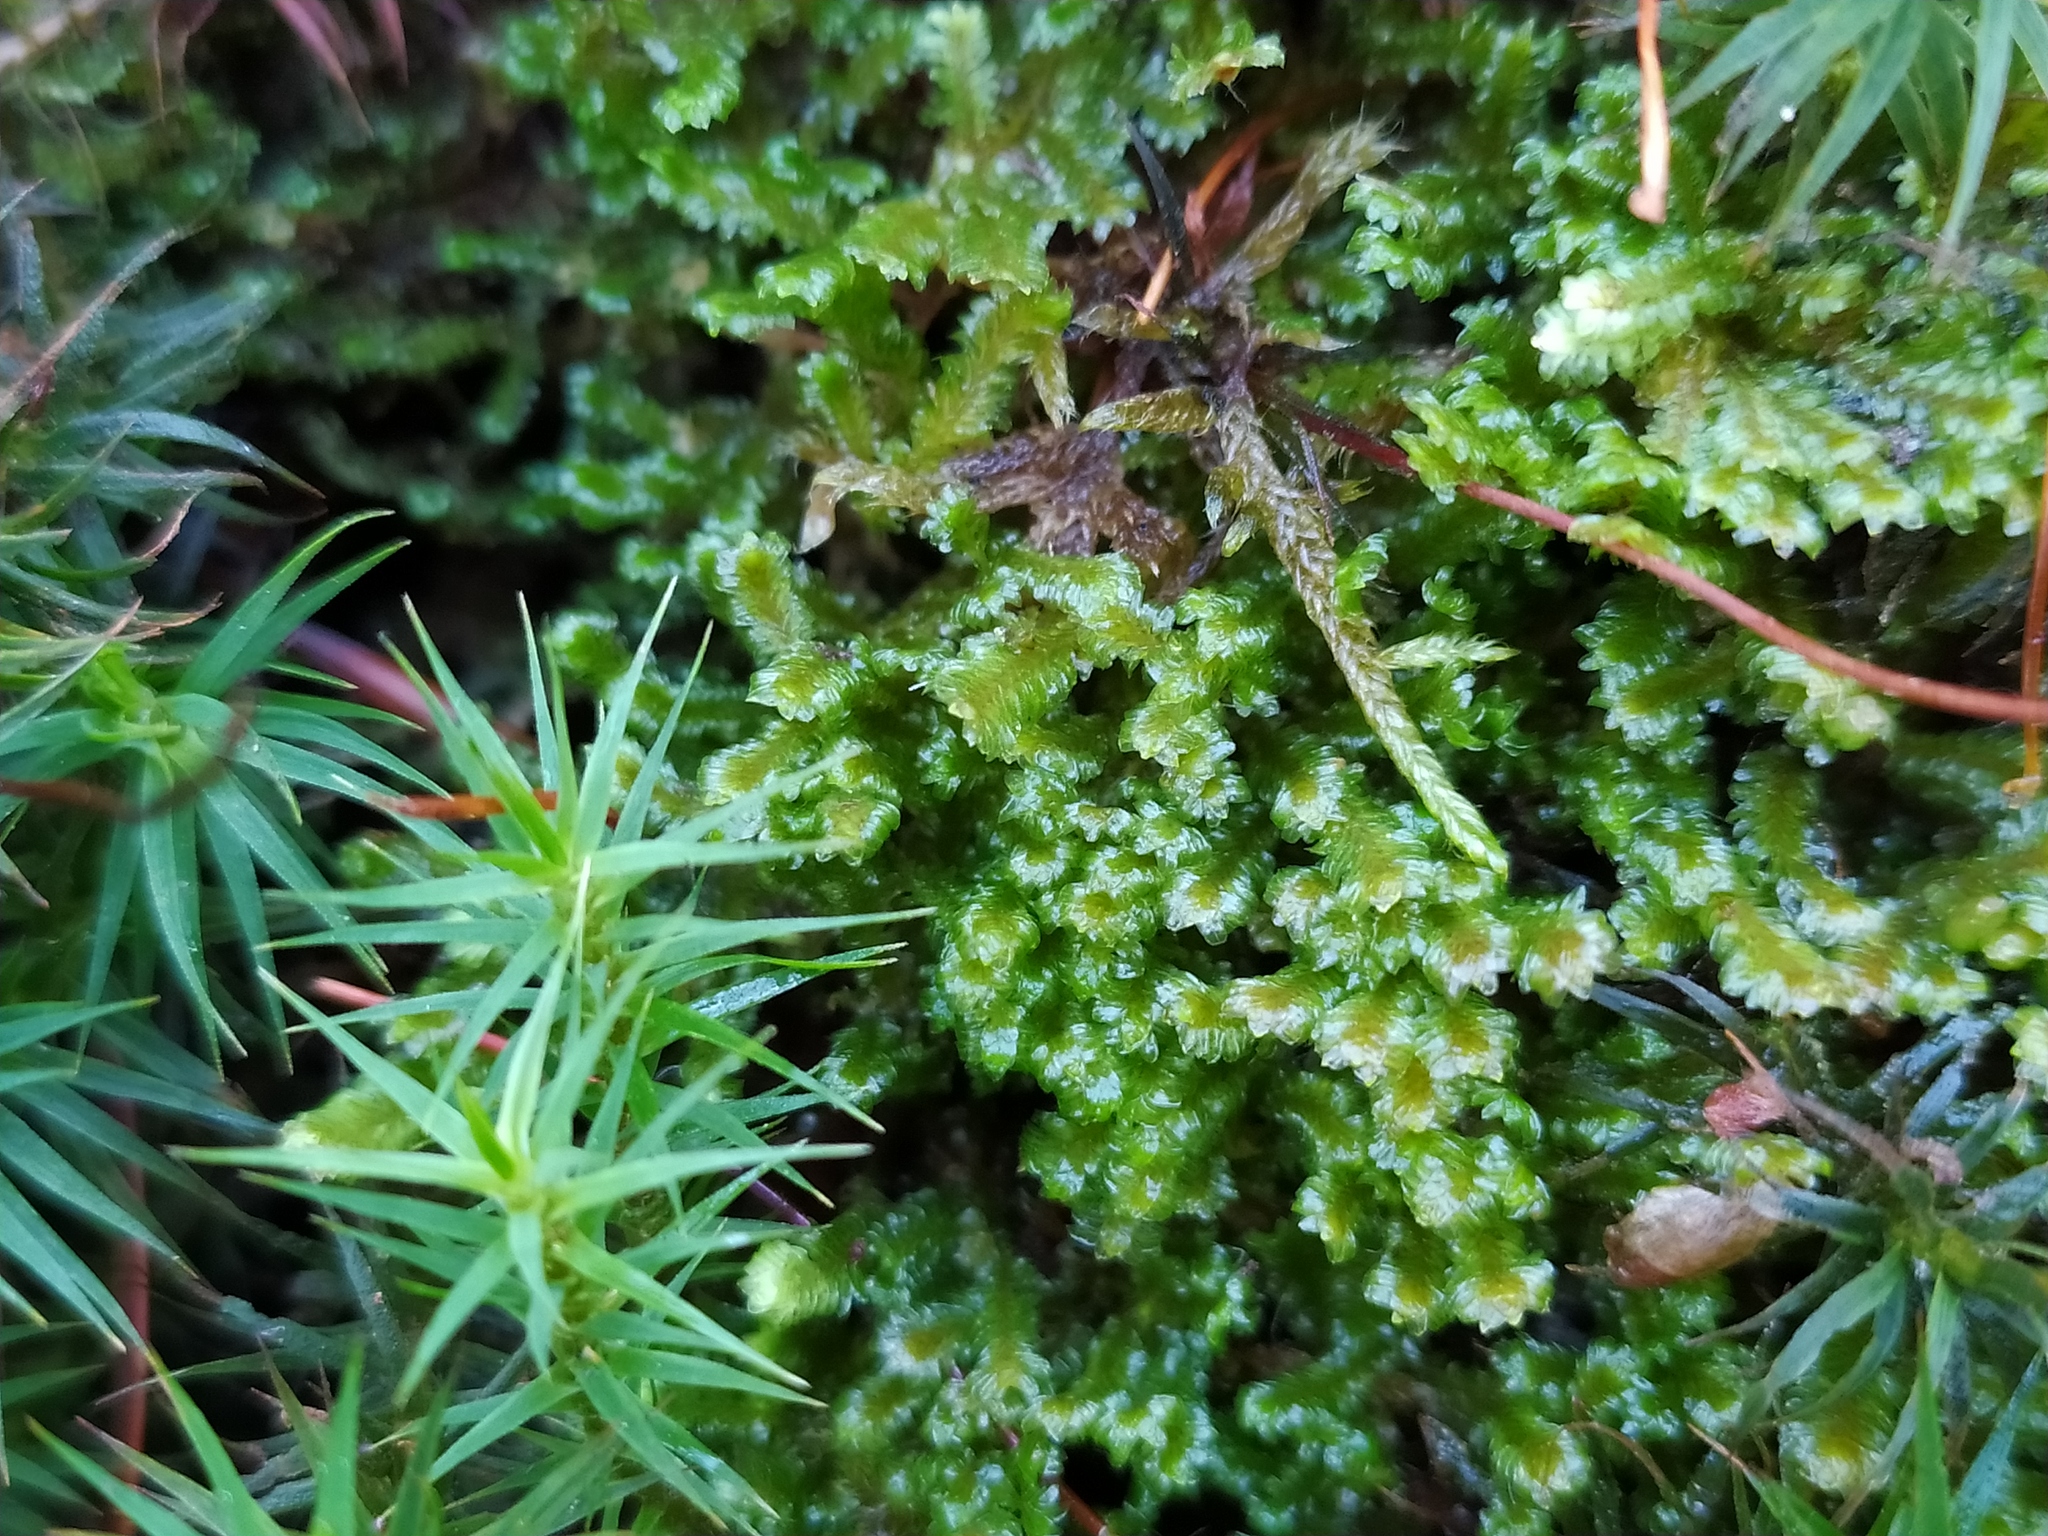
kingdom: Plantae
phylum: Marchantiophyta
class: Jungermanniopsida
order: Jungermanniales
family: Scapaniaceae
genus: Diplophyllum
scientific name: Diplophyllum albicans
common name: White earwort
